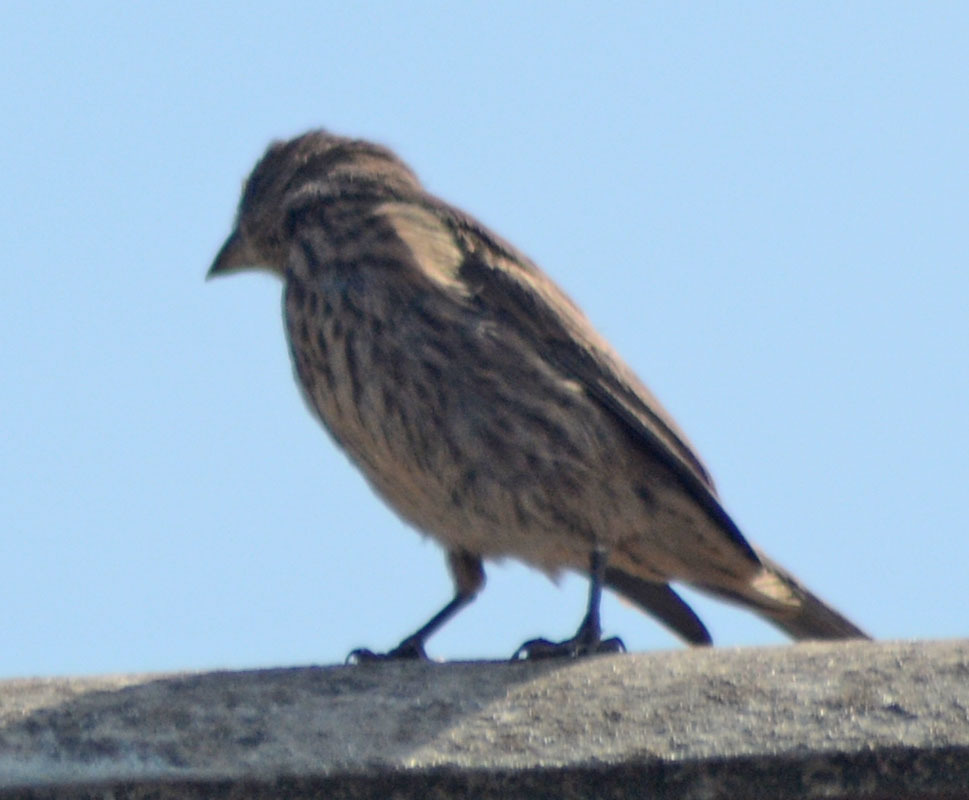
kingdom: Animalia
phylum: Chordata
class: Aves
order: Passeriformes
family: Fringillidae
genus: Haemorhous
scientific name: Haemorhous mexicanus
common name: House finch
